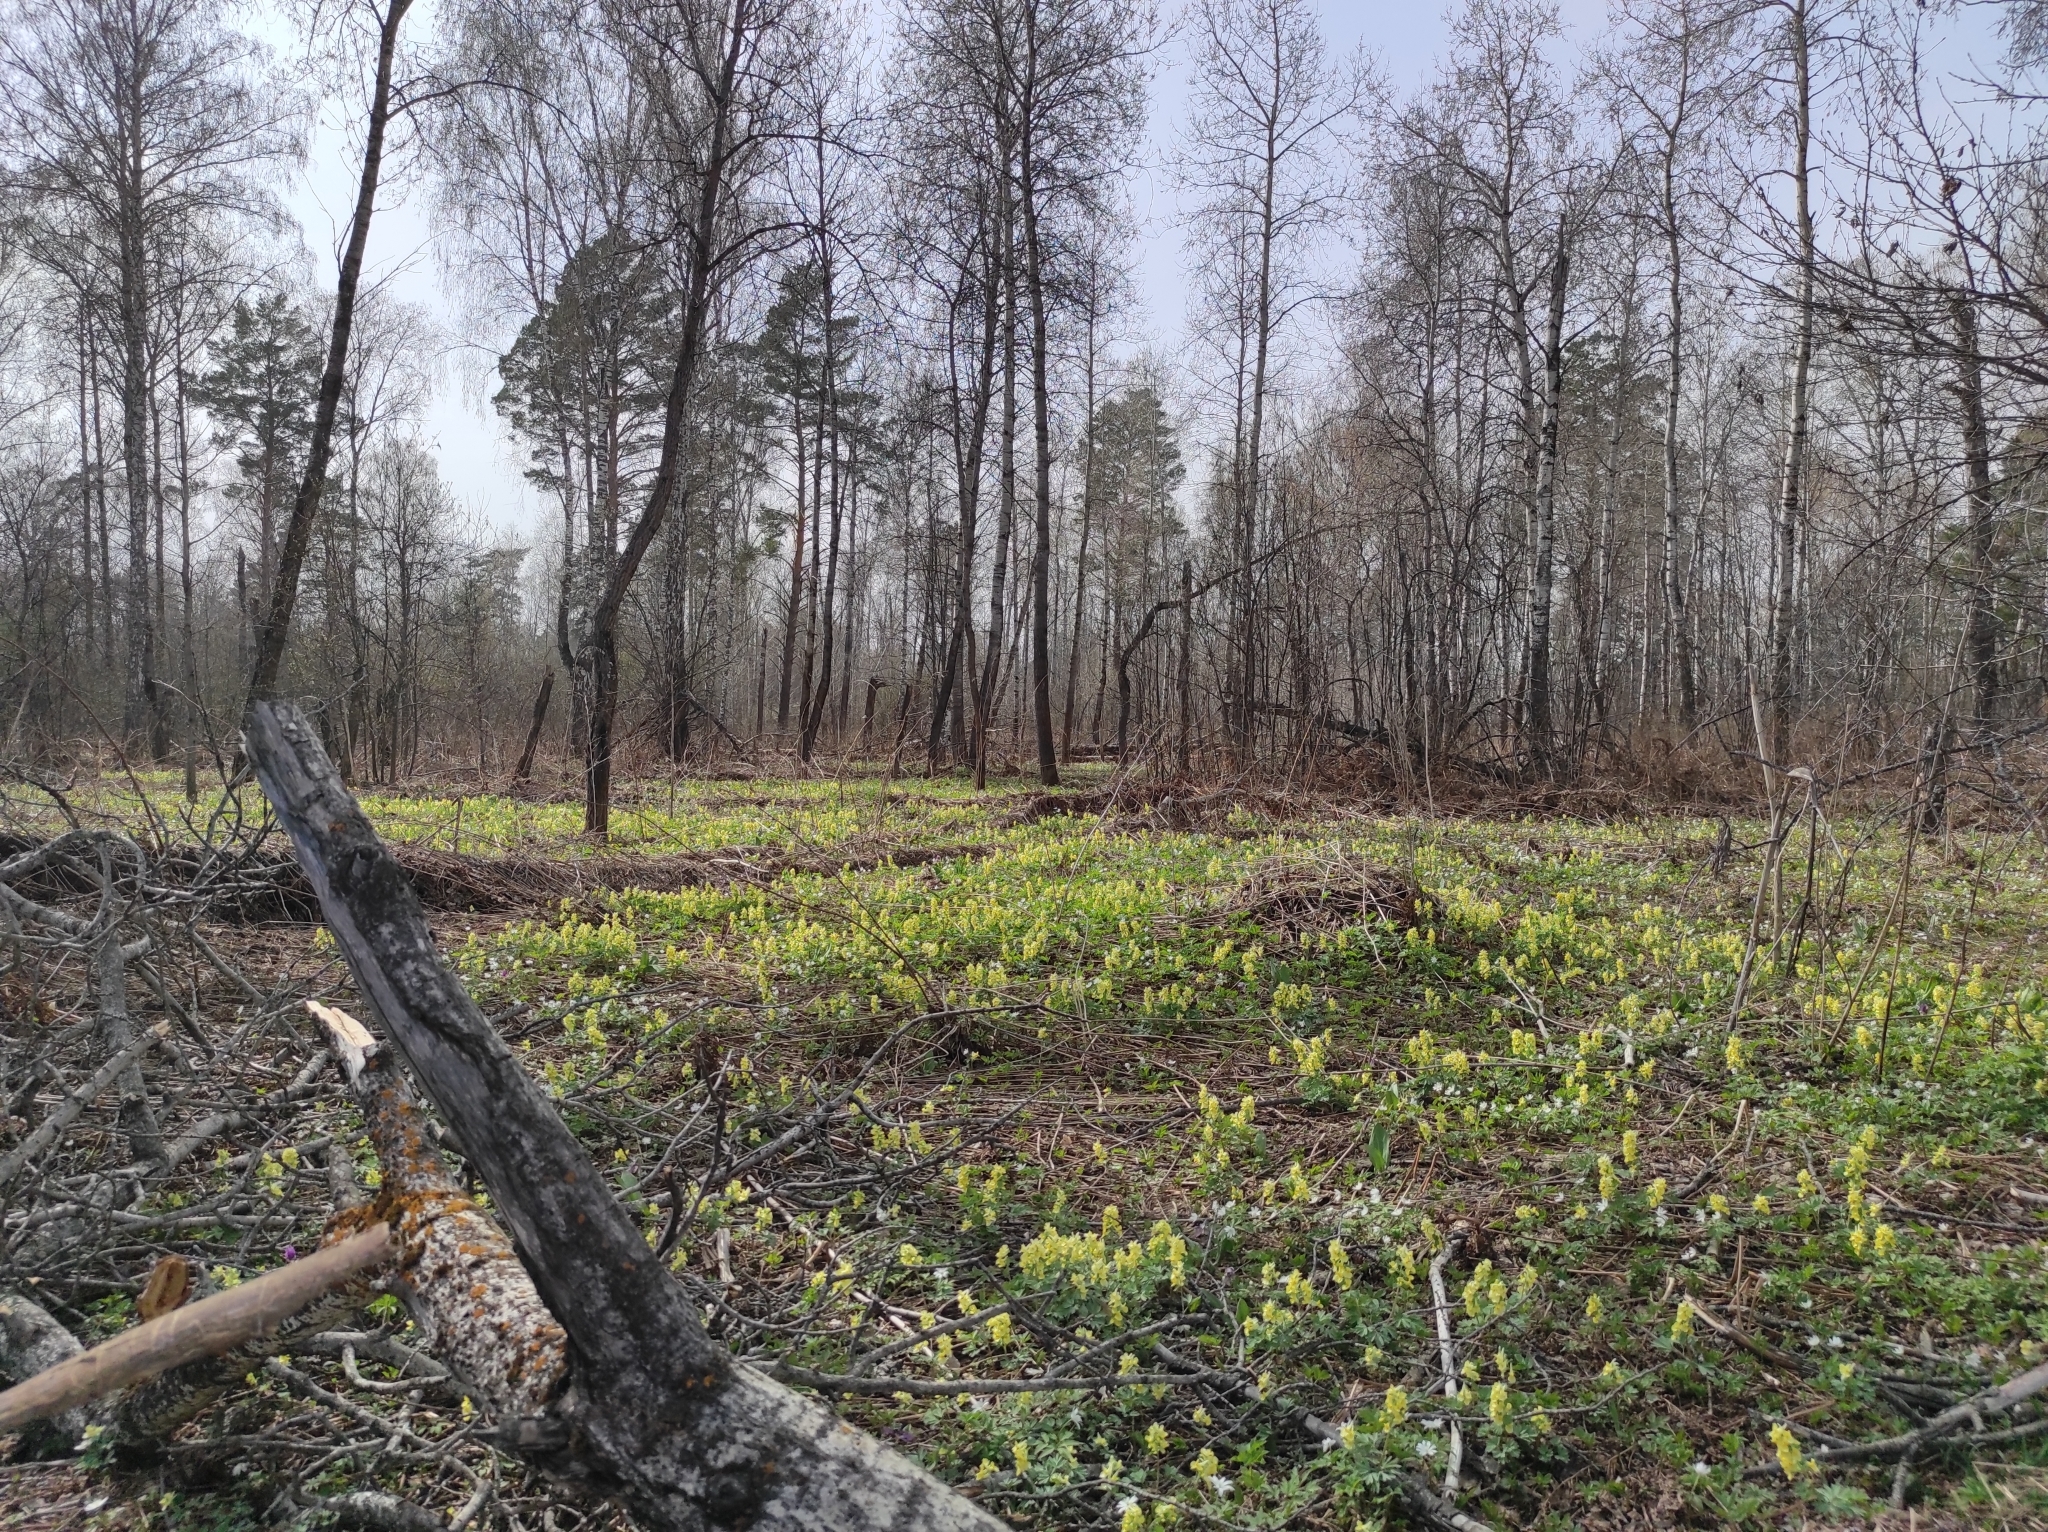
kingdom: Plantae
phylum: Tracheophyta
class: Magnoliopsida
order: Malpighiales
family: Salicaceae
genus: Populus
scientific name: Populus tremula
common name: European aspen
